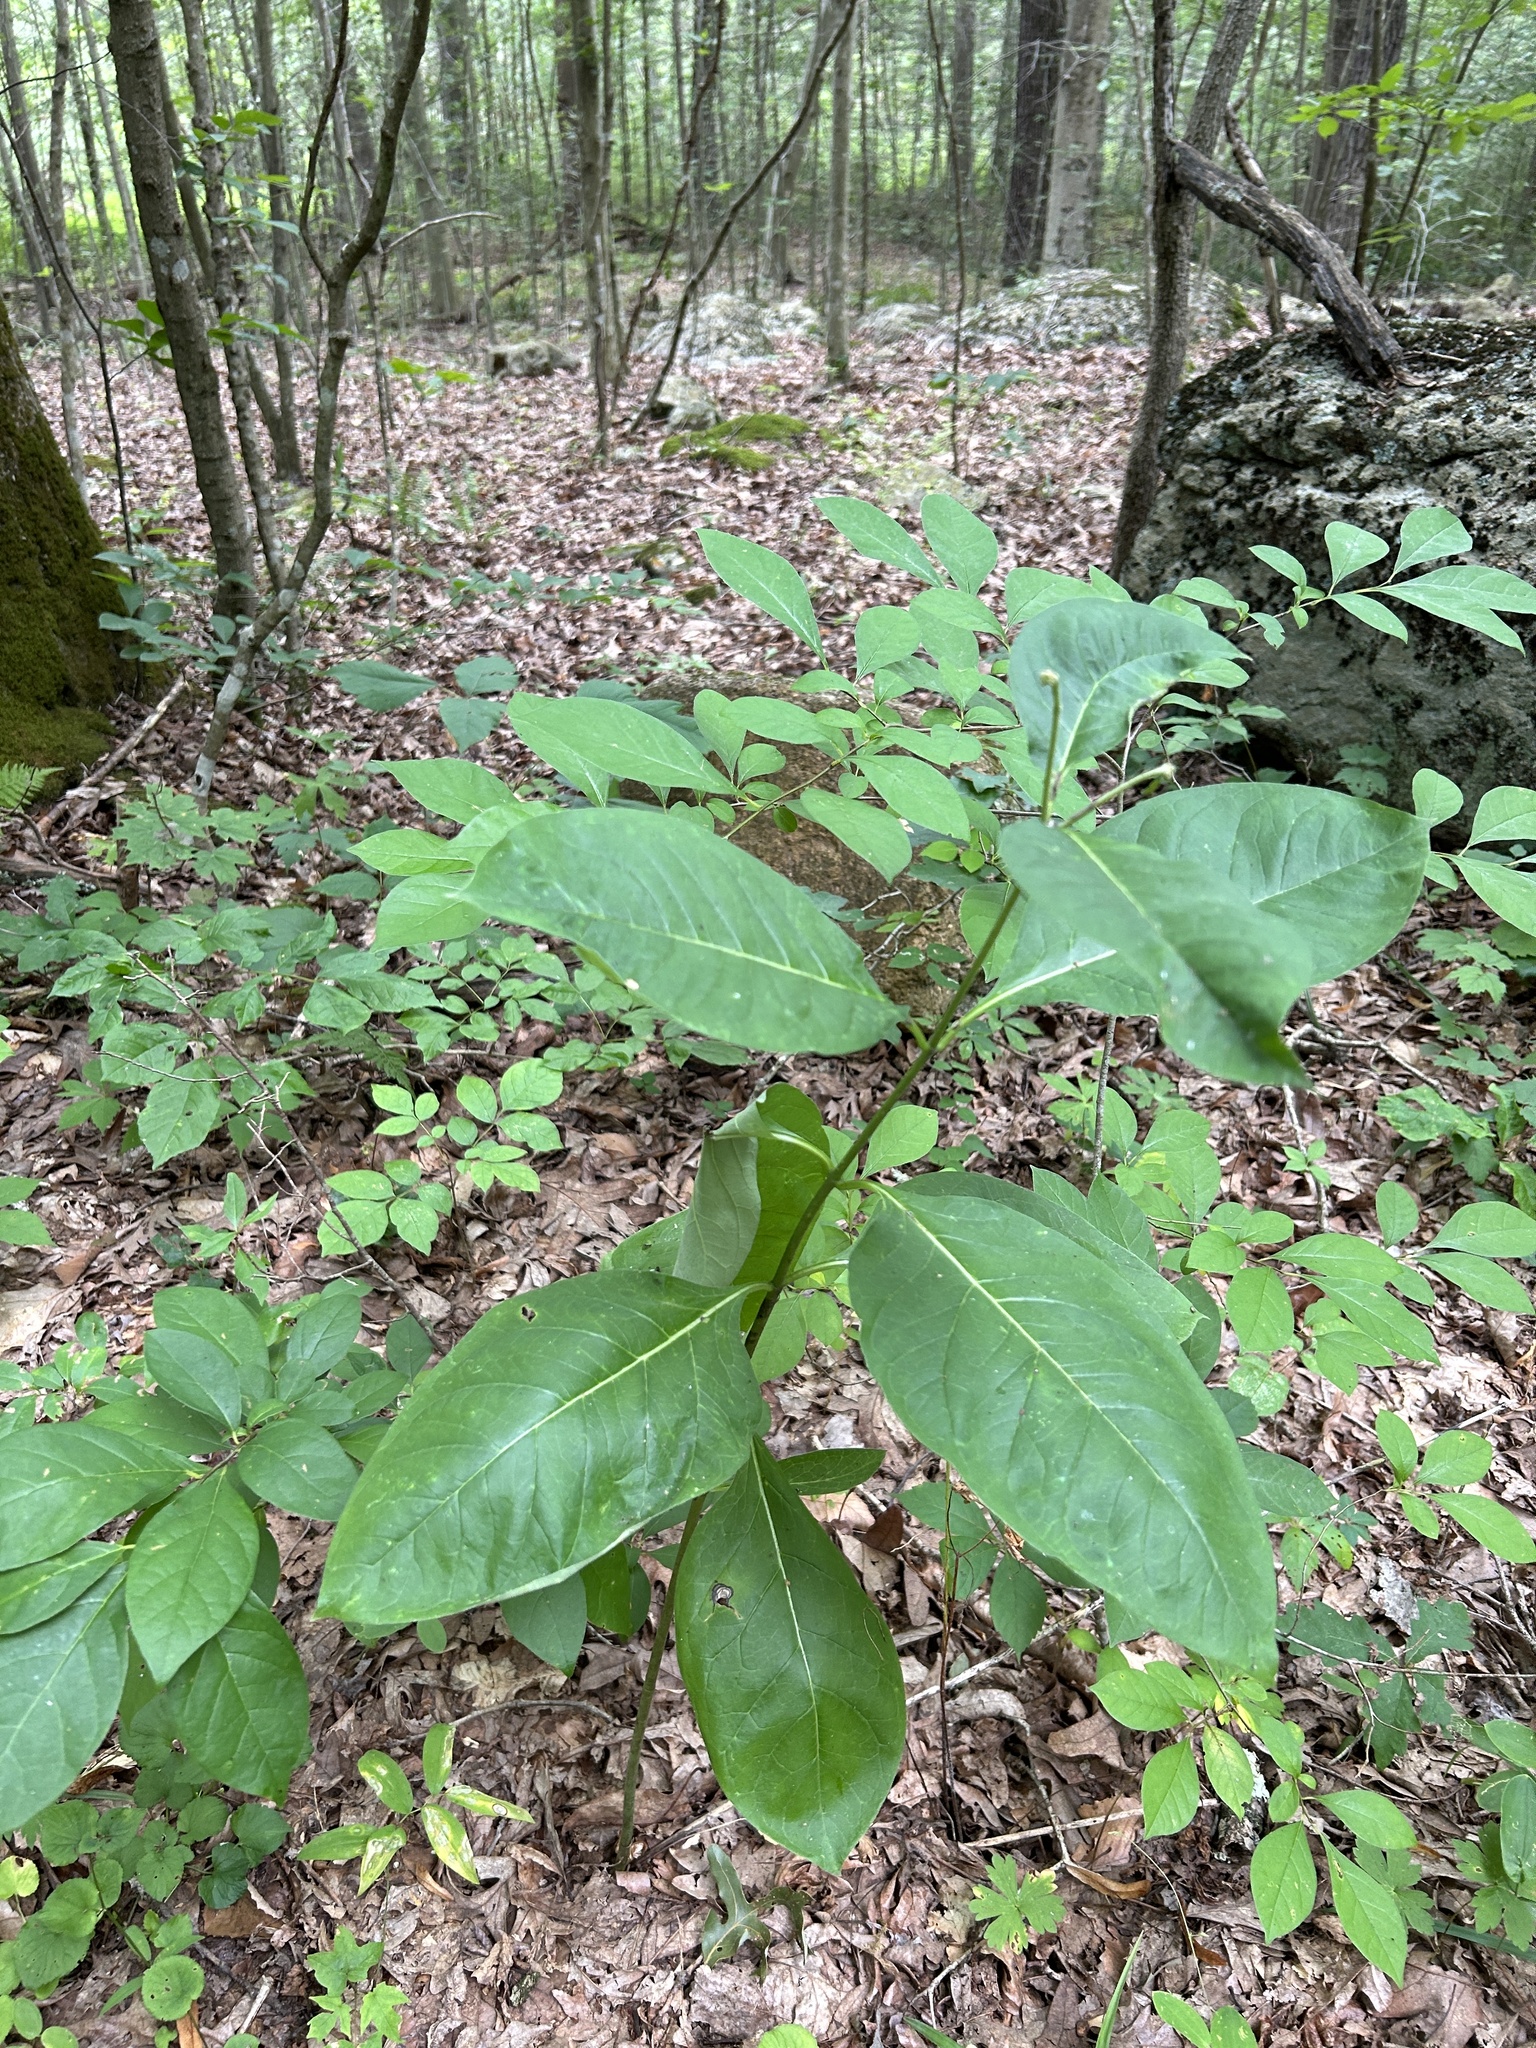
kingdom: Plantae
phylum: Tracheophyta
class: Magnoliopsida
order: Gentianales
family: Apocynaceae
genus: Asclepias
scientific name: Asclepias exaltata
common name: Poke milkweed
